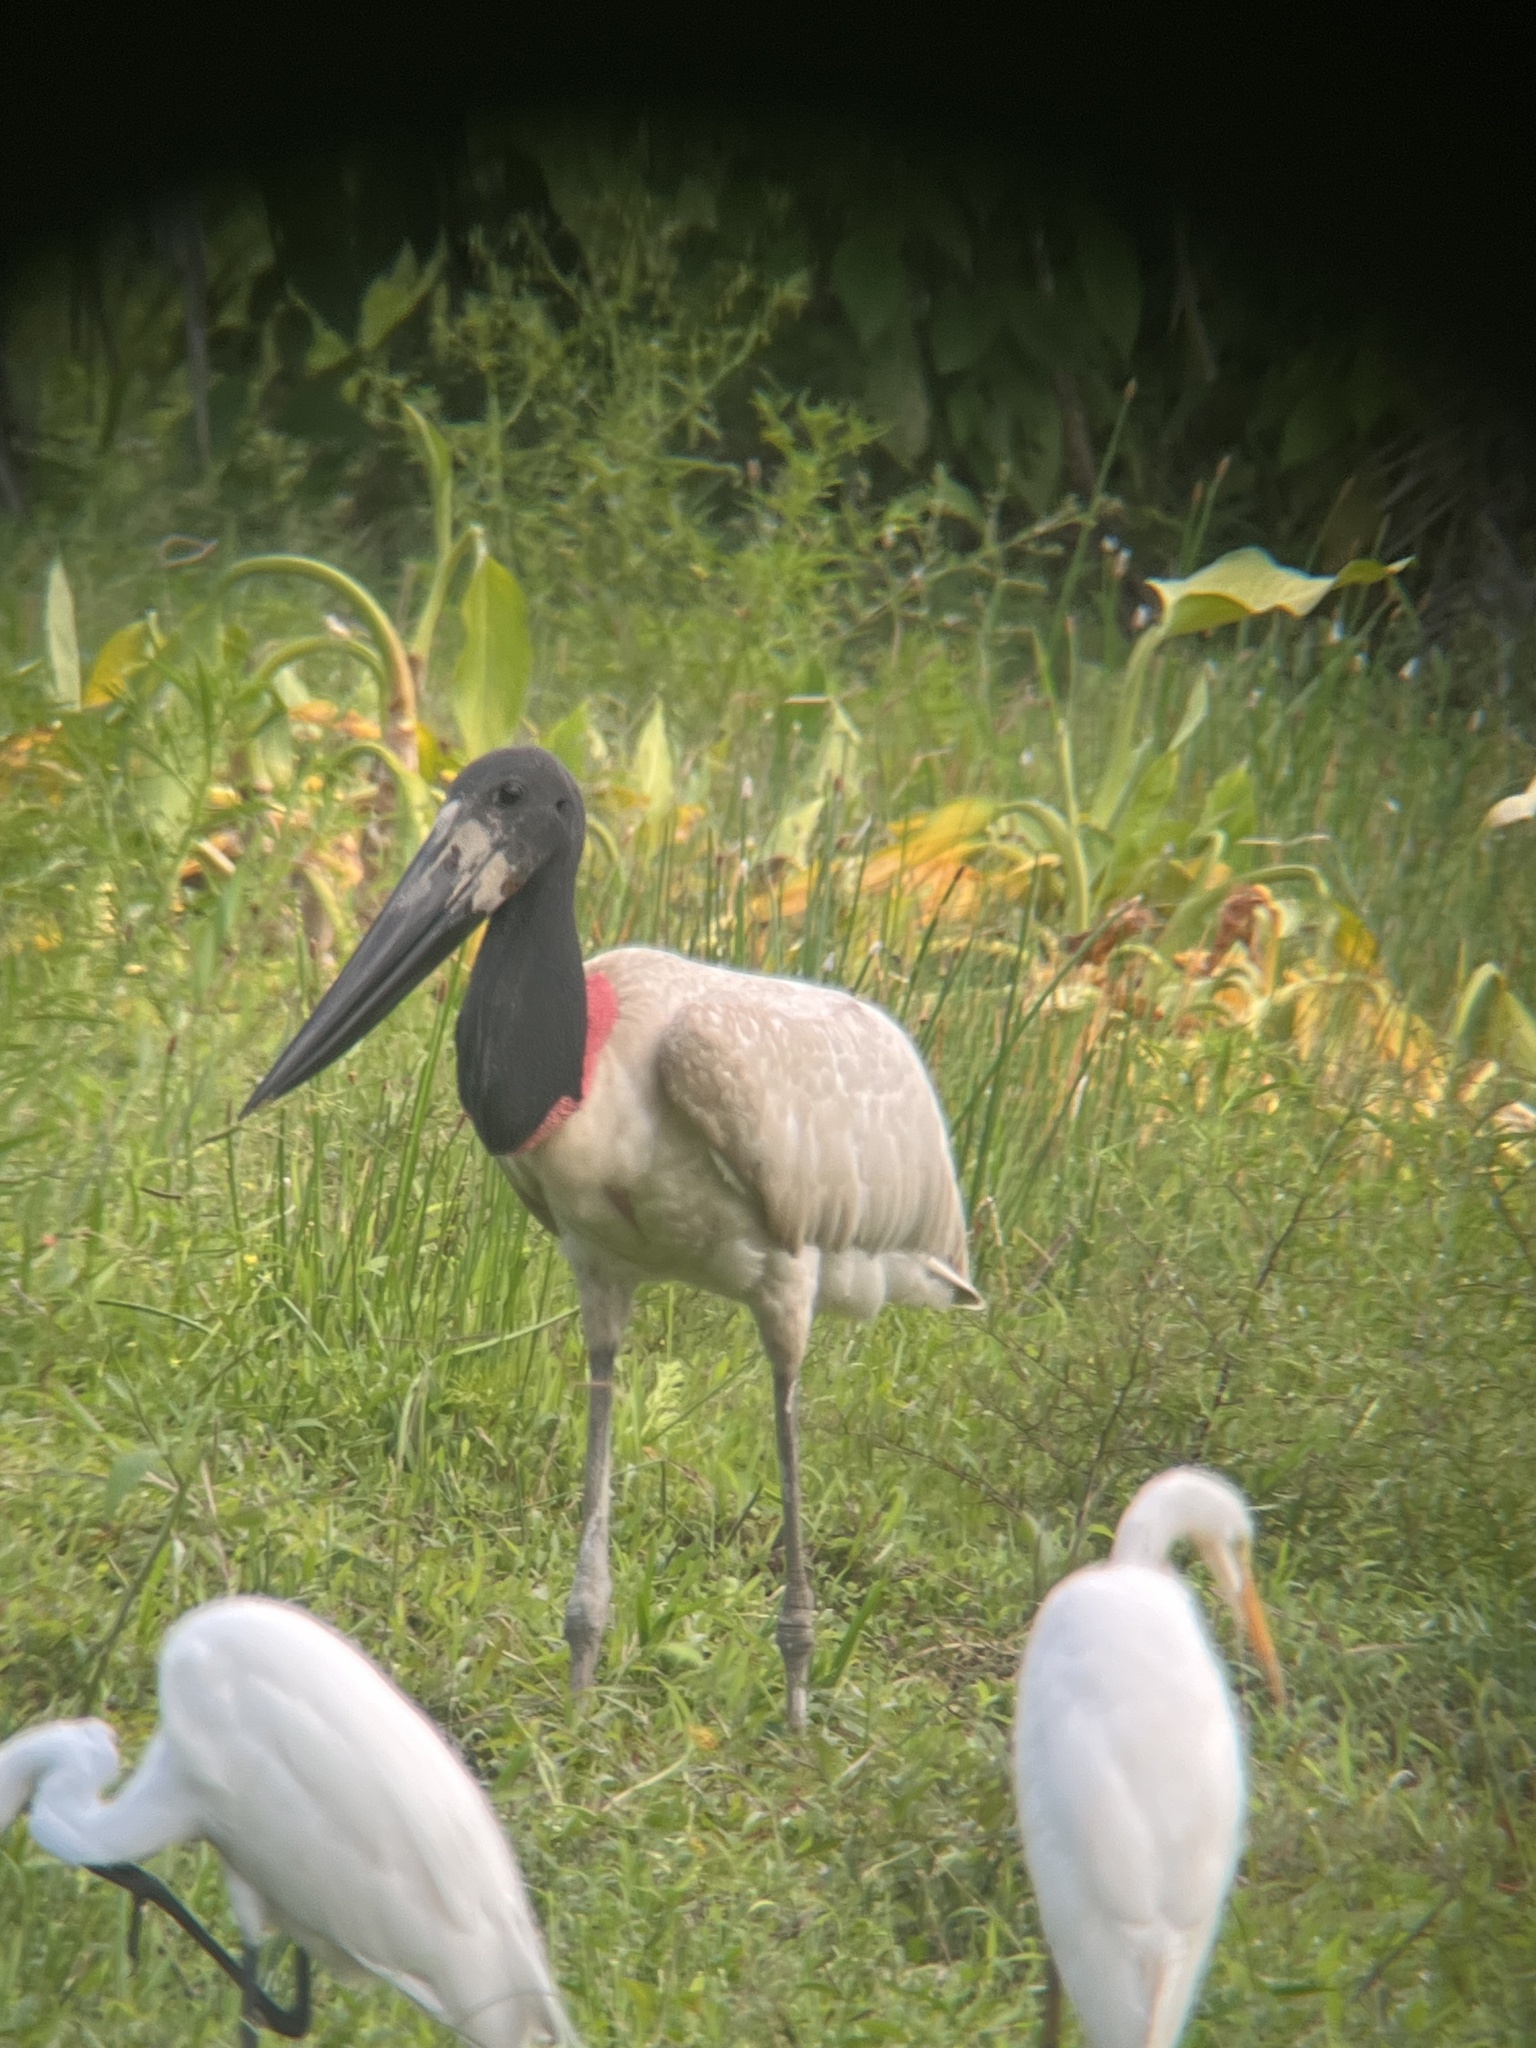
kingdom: Animalia
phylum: Chordata
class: Aves
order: Ciconiiformes
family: Ciconiidae
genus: Jabiru
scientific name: Jabiru mycteria
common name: Jabiru
